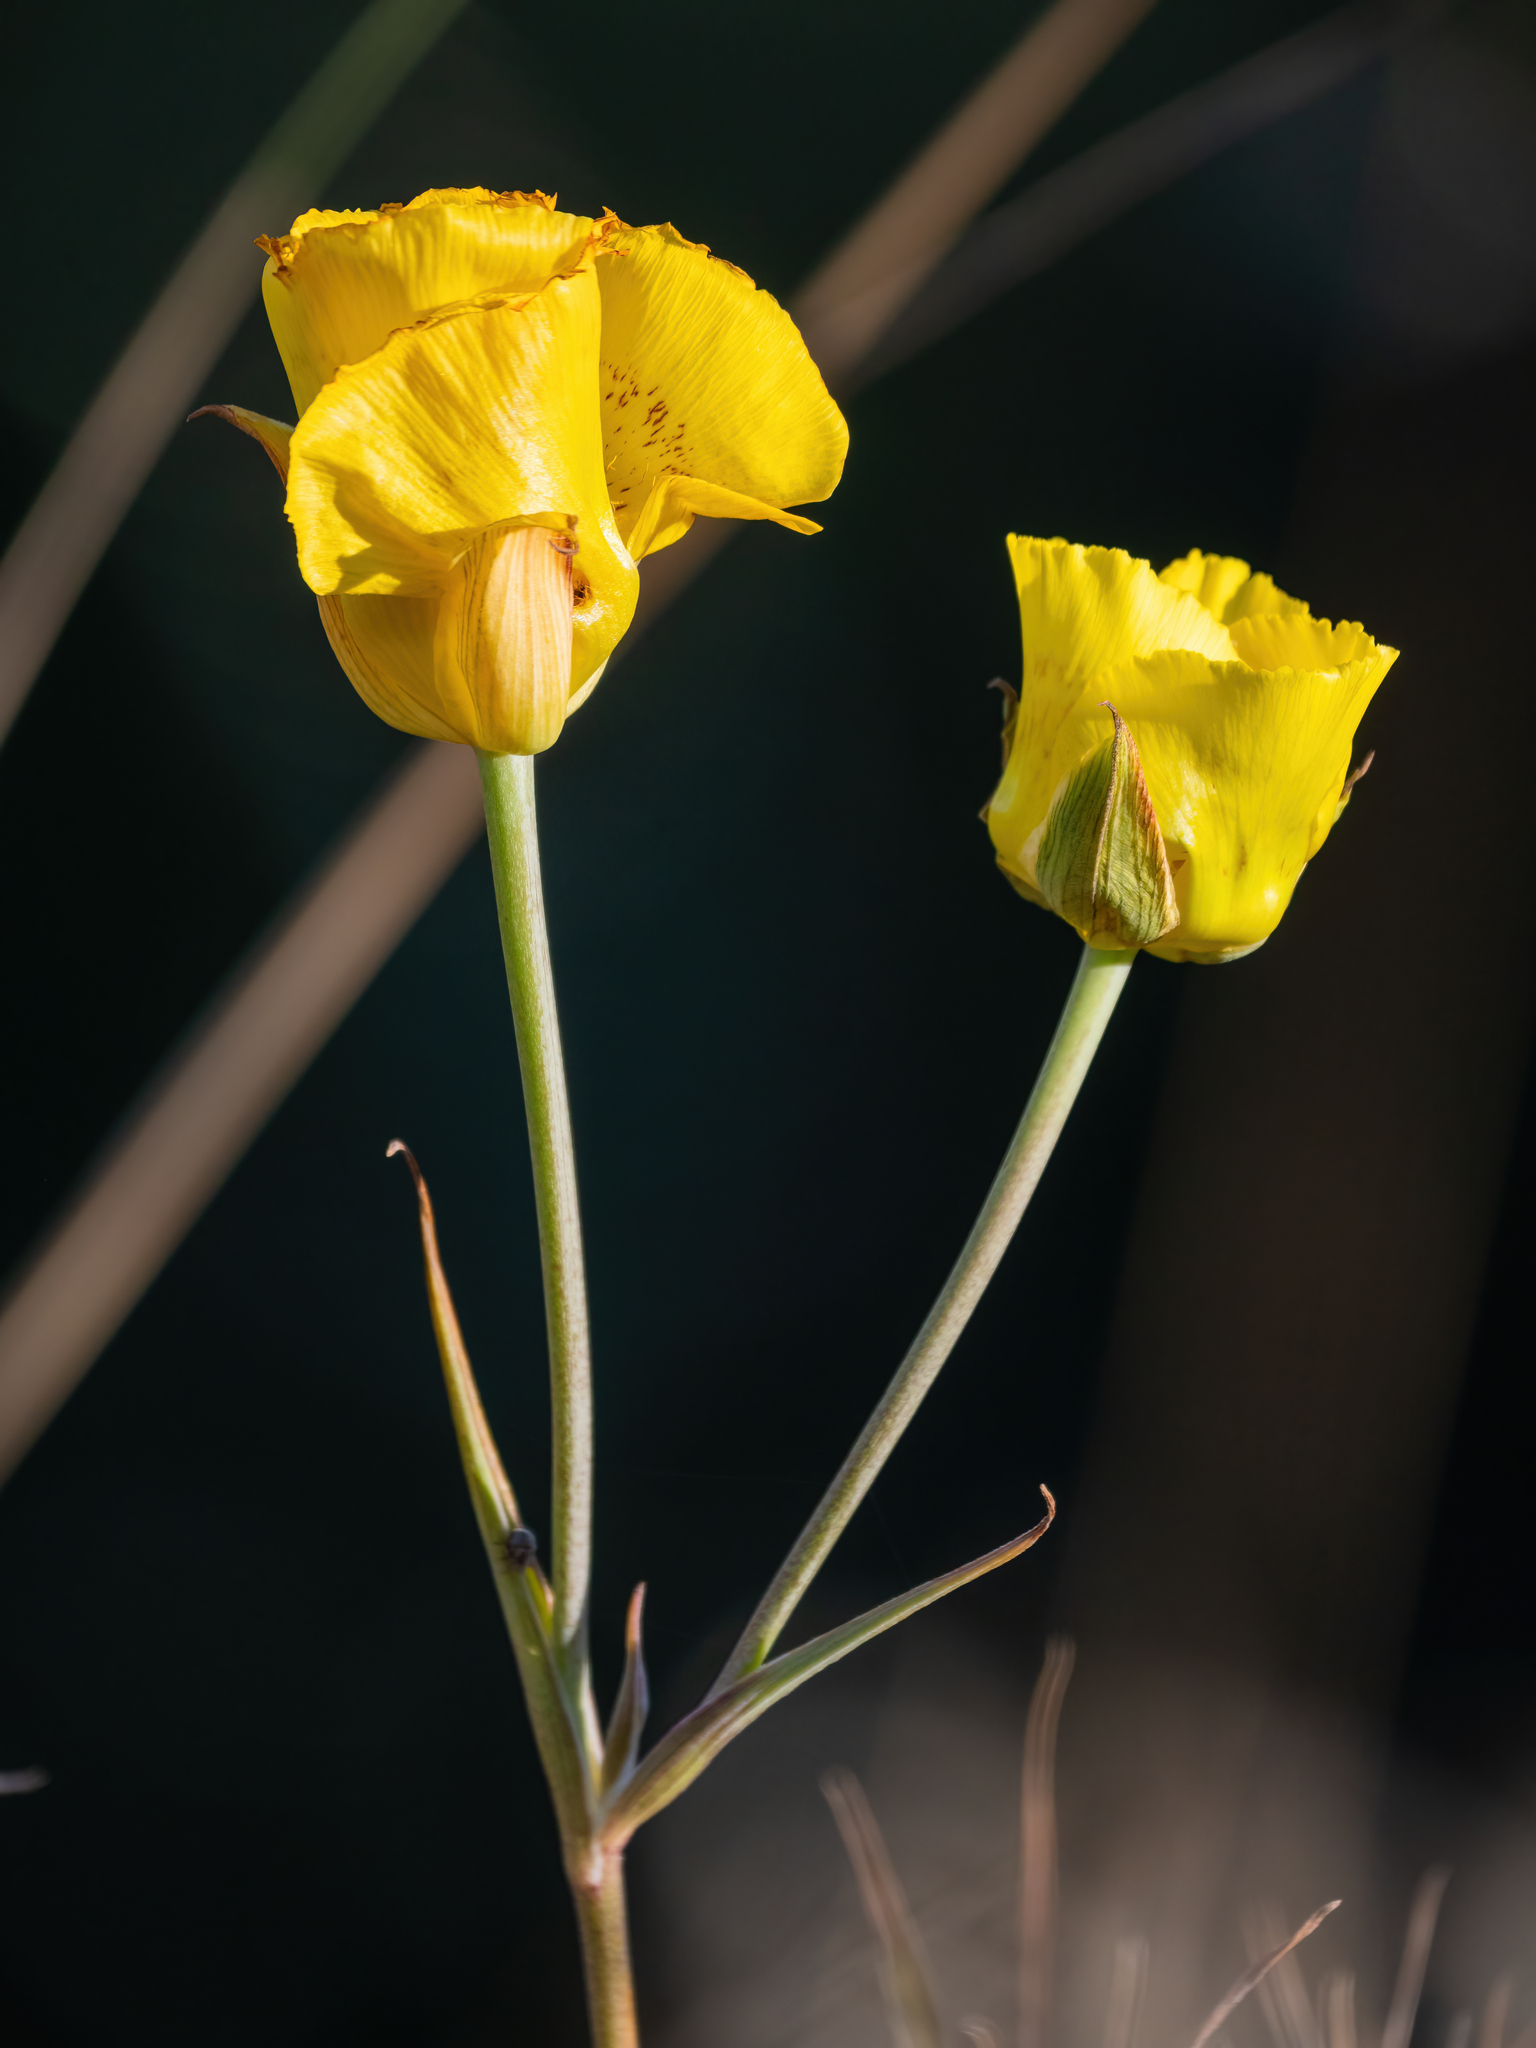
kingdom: Plantae
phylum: Tracheophyta
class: Liliopsida
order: Liliales
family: Liliaceae
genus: Calochortus
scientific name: Calochortus luteus
